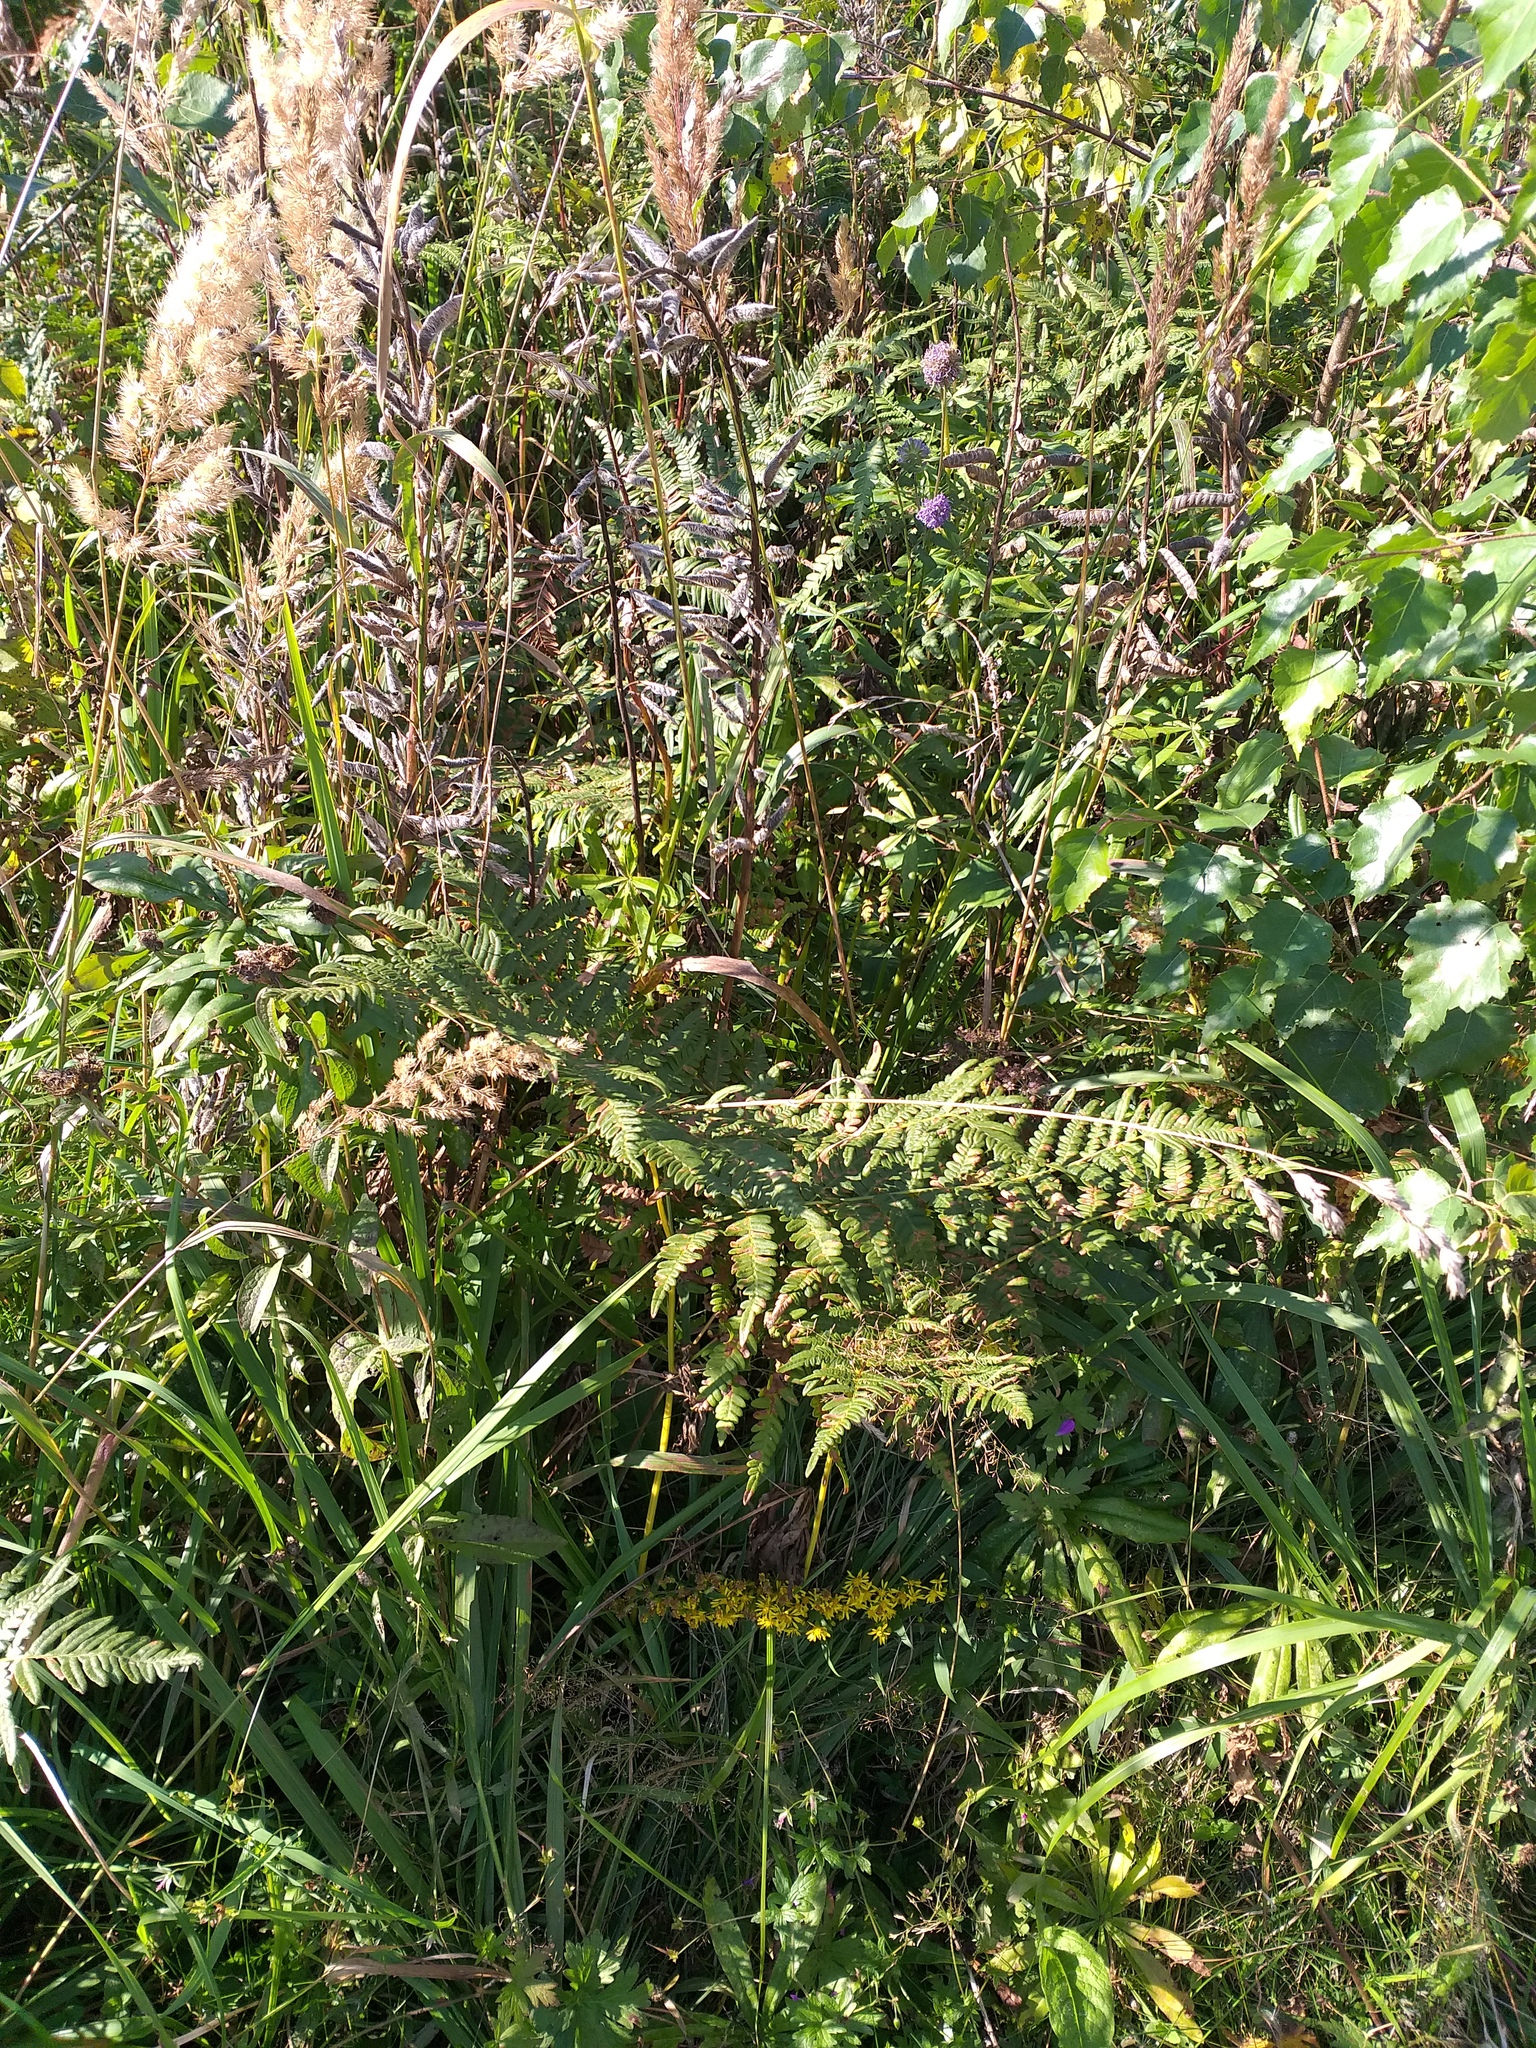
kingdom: Plantae
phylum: Tracheophyta
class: Polypodiopsida
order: Polypodiales
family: Dennstaedtiaceae
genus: Pteridium
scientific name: Pteridium aquilinum
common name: Bracken
